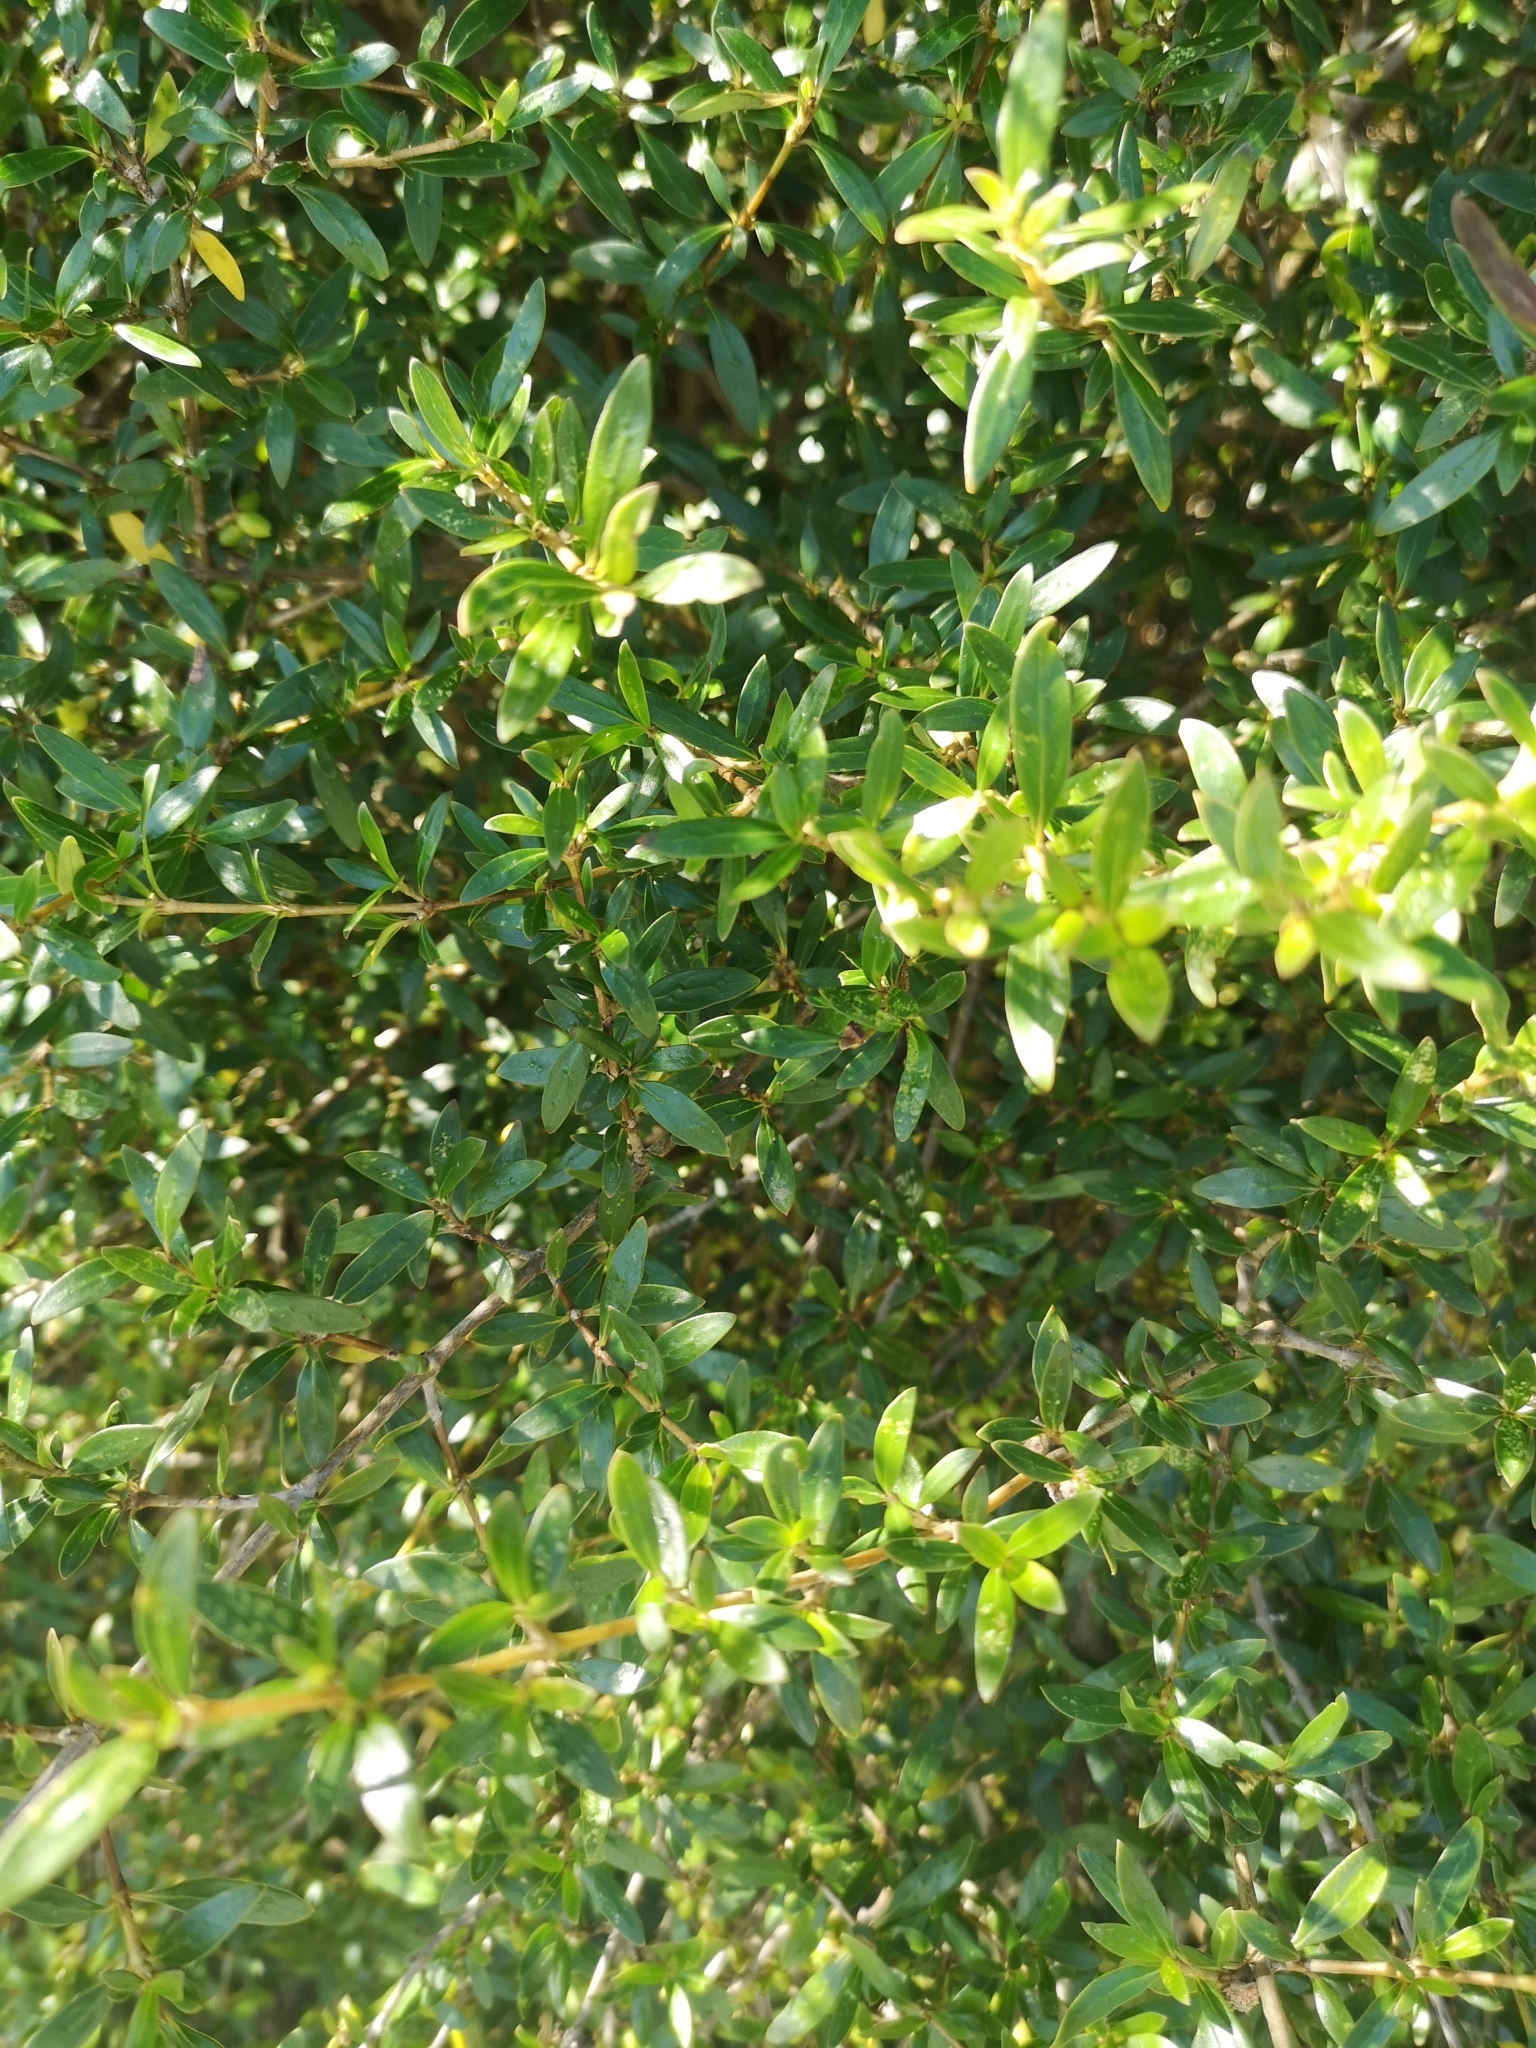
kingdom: Plantae
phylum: Tracheophyta
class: Magnoliopsida
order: Gentianales
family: Rubiaceae
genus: Coprosma
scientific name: Coprosma cunninghamii
